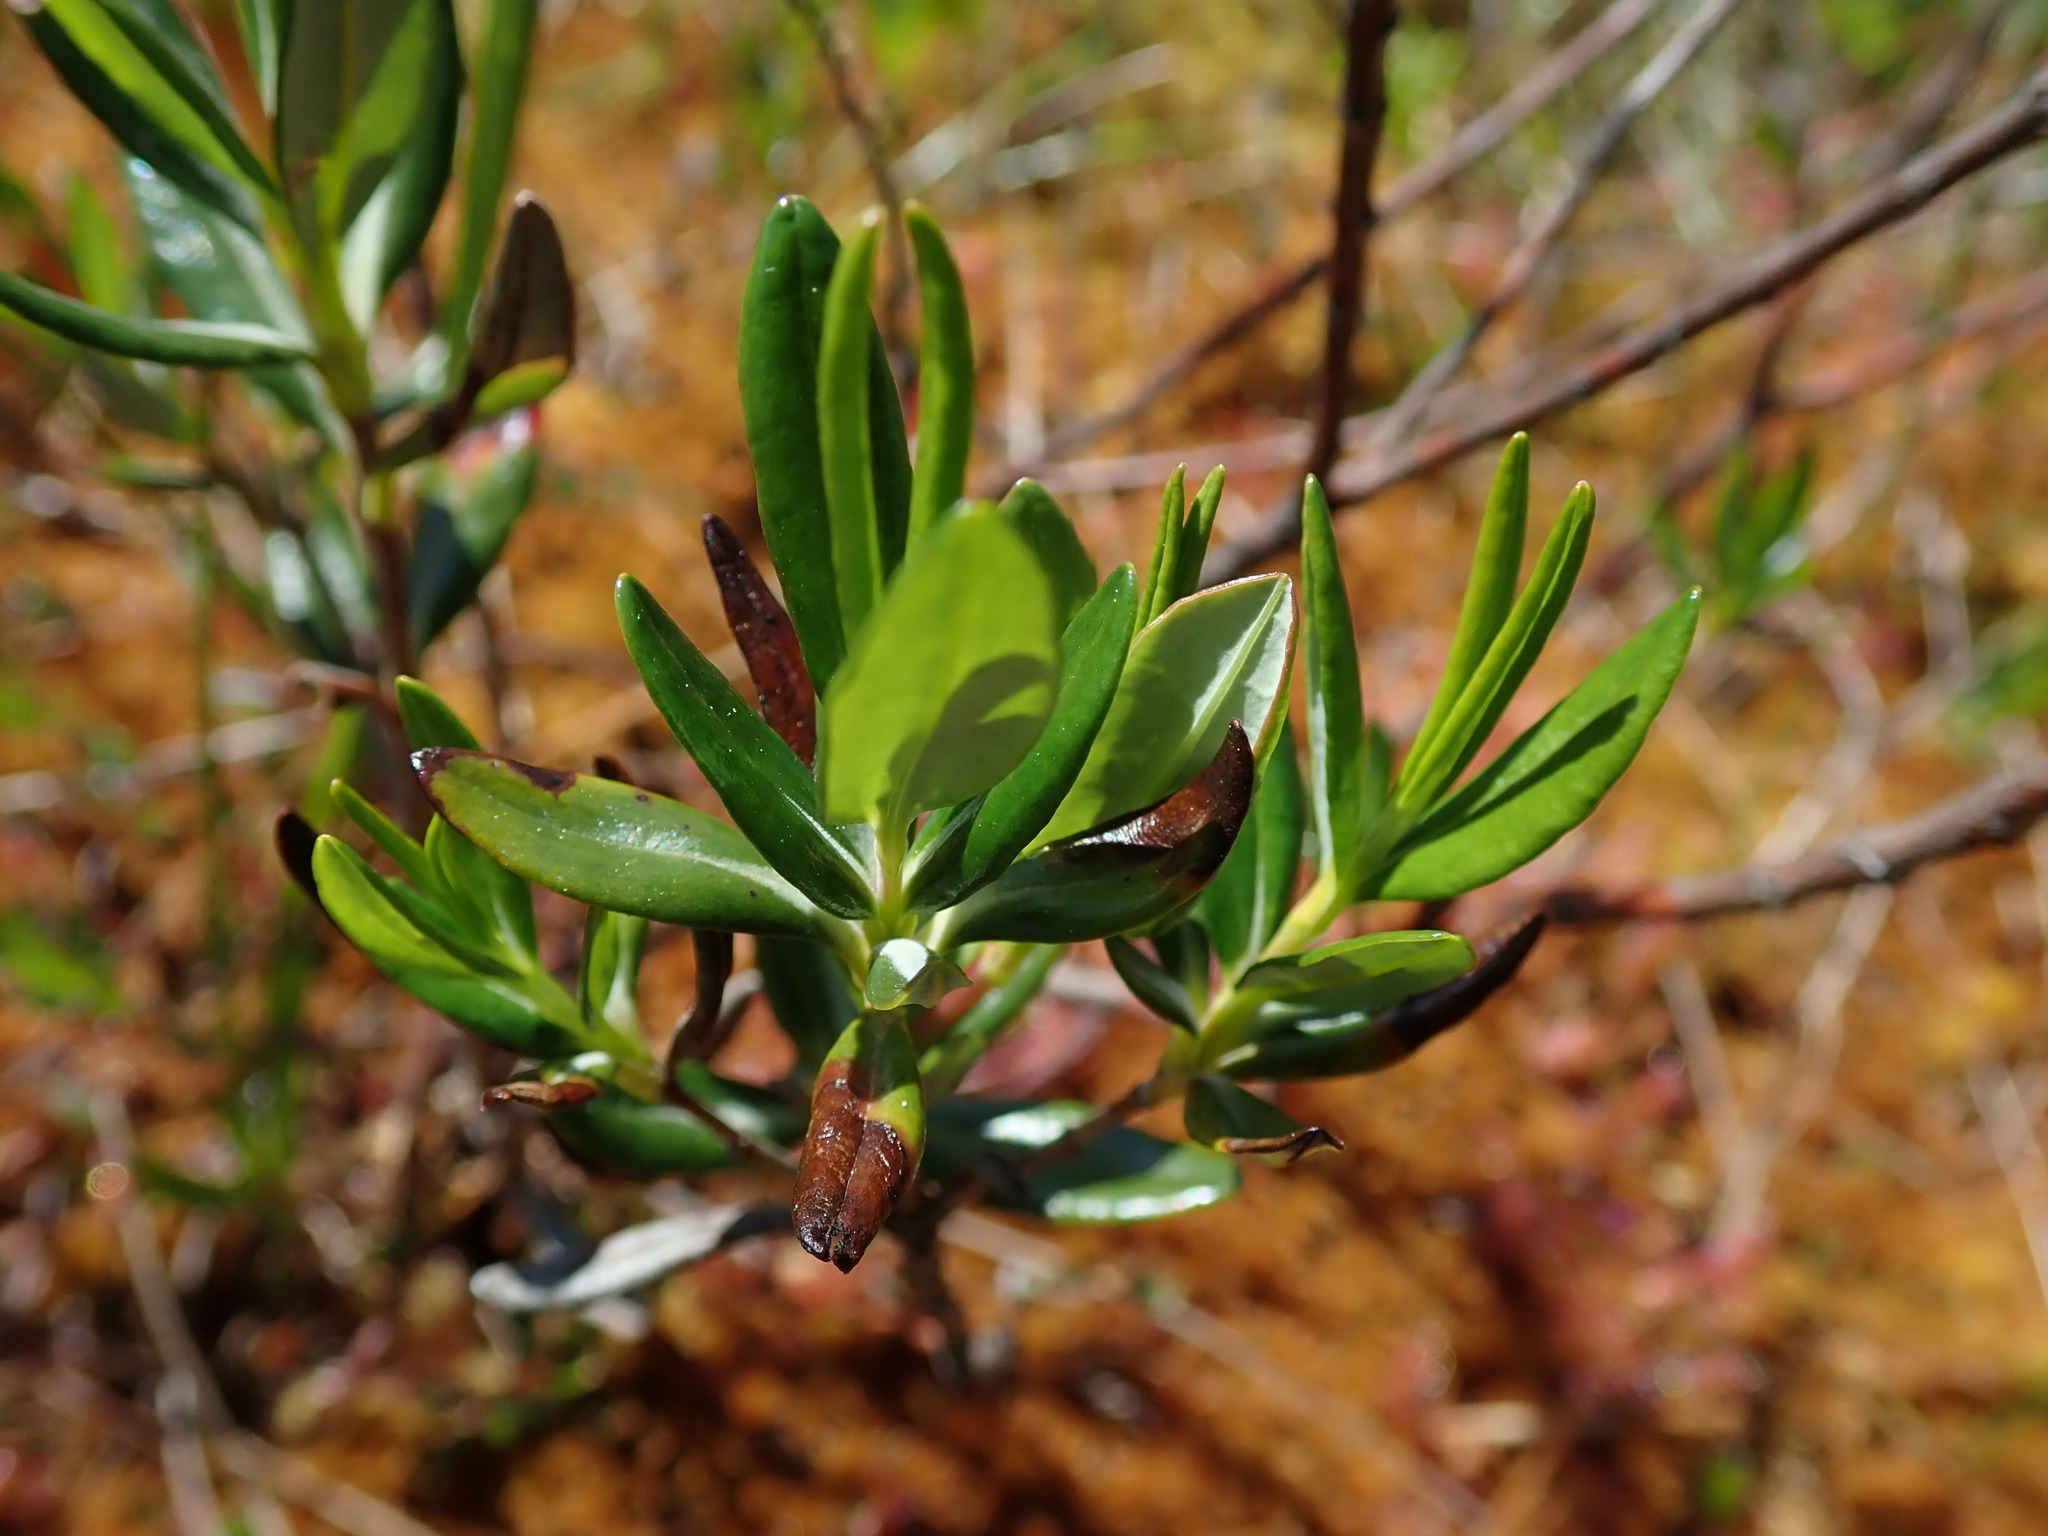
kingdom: Plantae
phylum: Tracheophyta
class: Magnoliopsida
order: Ericales
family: Ericaceae
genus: Kalmia
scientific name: Kalmia microphylla
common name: Alpine bog laurel
